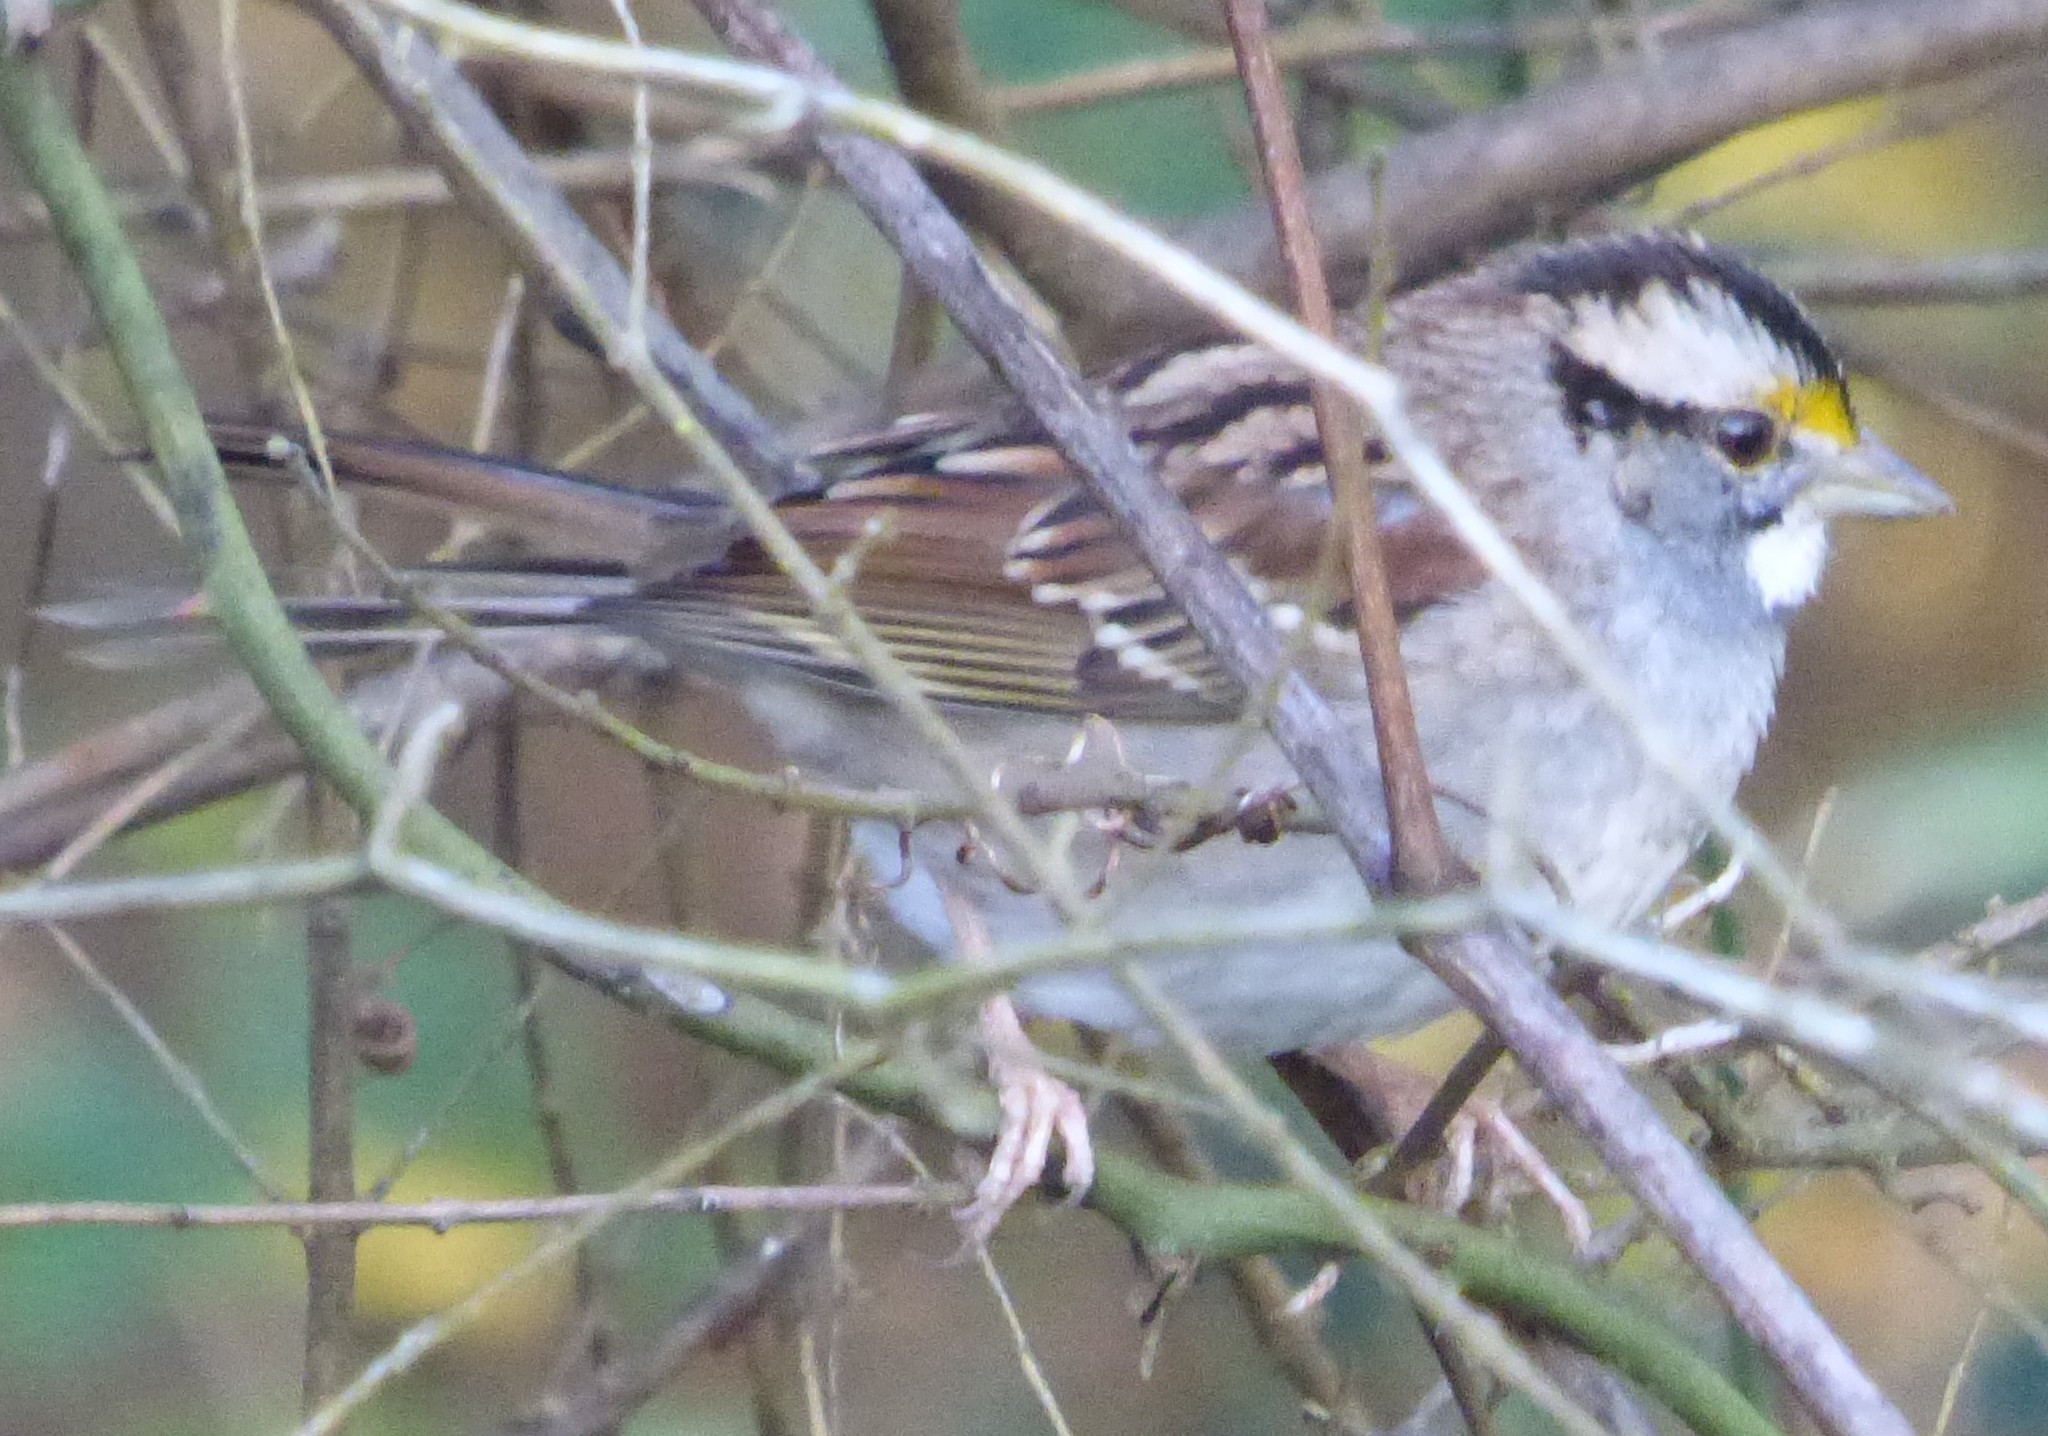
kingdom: Animalia
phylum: Chordata
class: Aves
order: Passeriformes
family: Passerellidae
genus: Zonotrichia
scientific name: Zonotrichia albicollis
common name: White-throated sparrow
